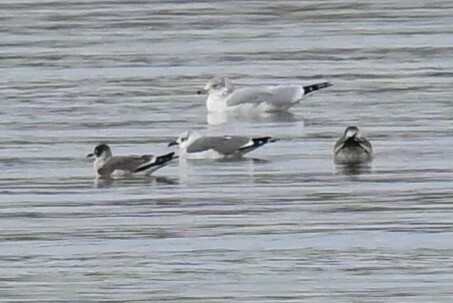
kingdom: Animalia
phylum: Chordata
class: Aves
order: Charadriiformes
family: Laridae
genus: Leucophaeus
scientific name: Leucophaeus atricilla
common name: Laughing gull
